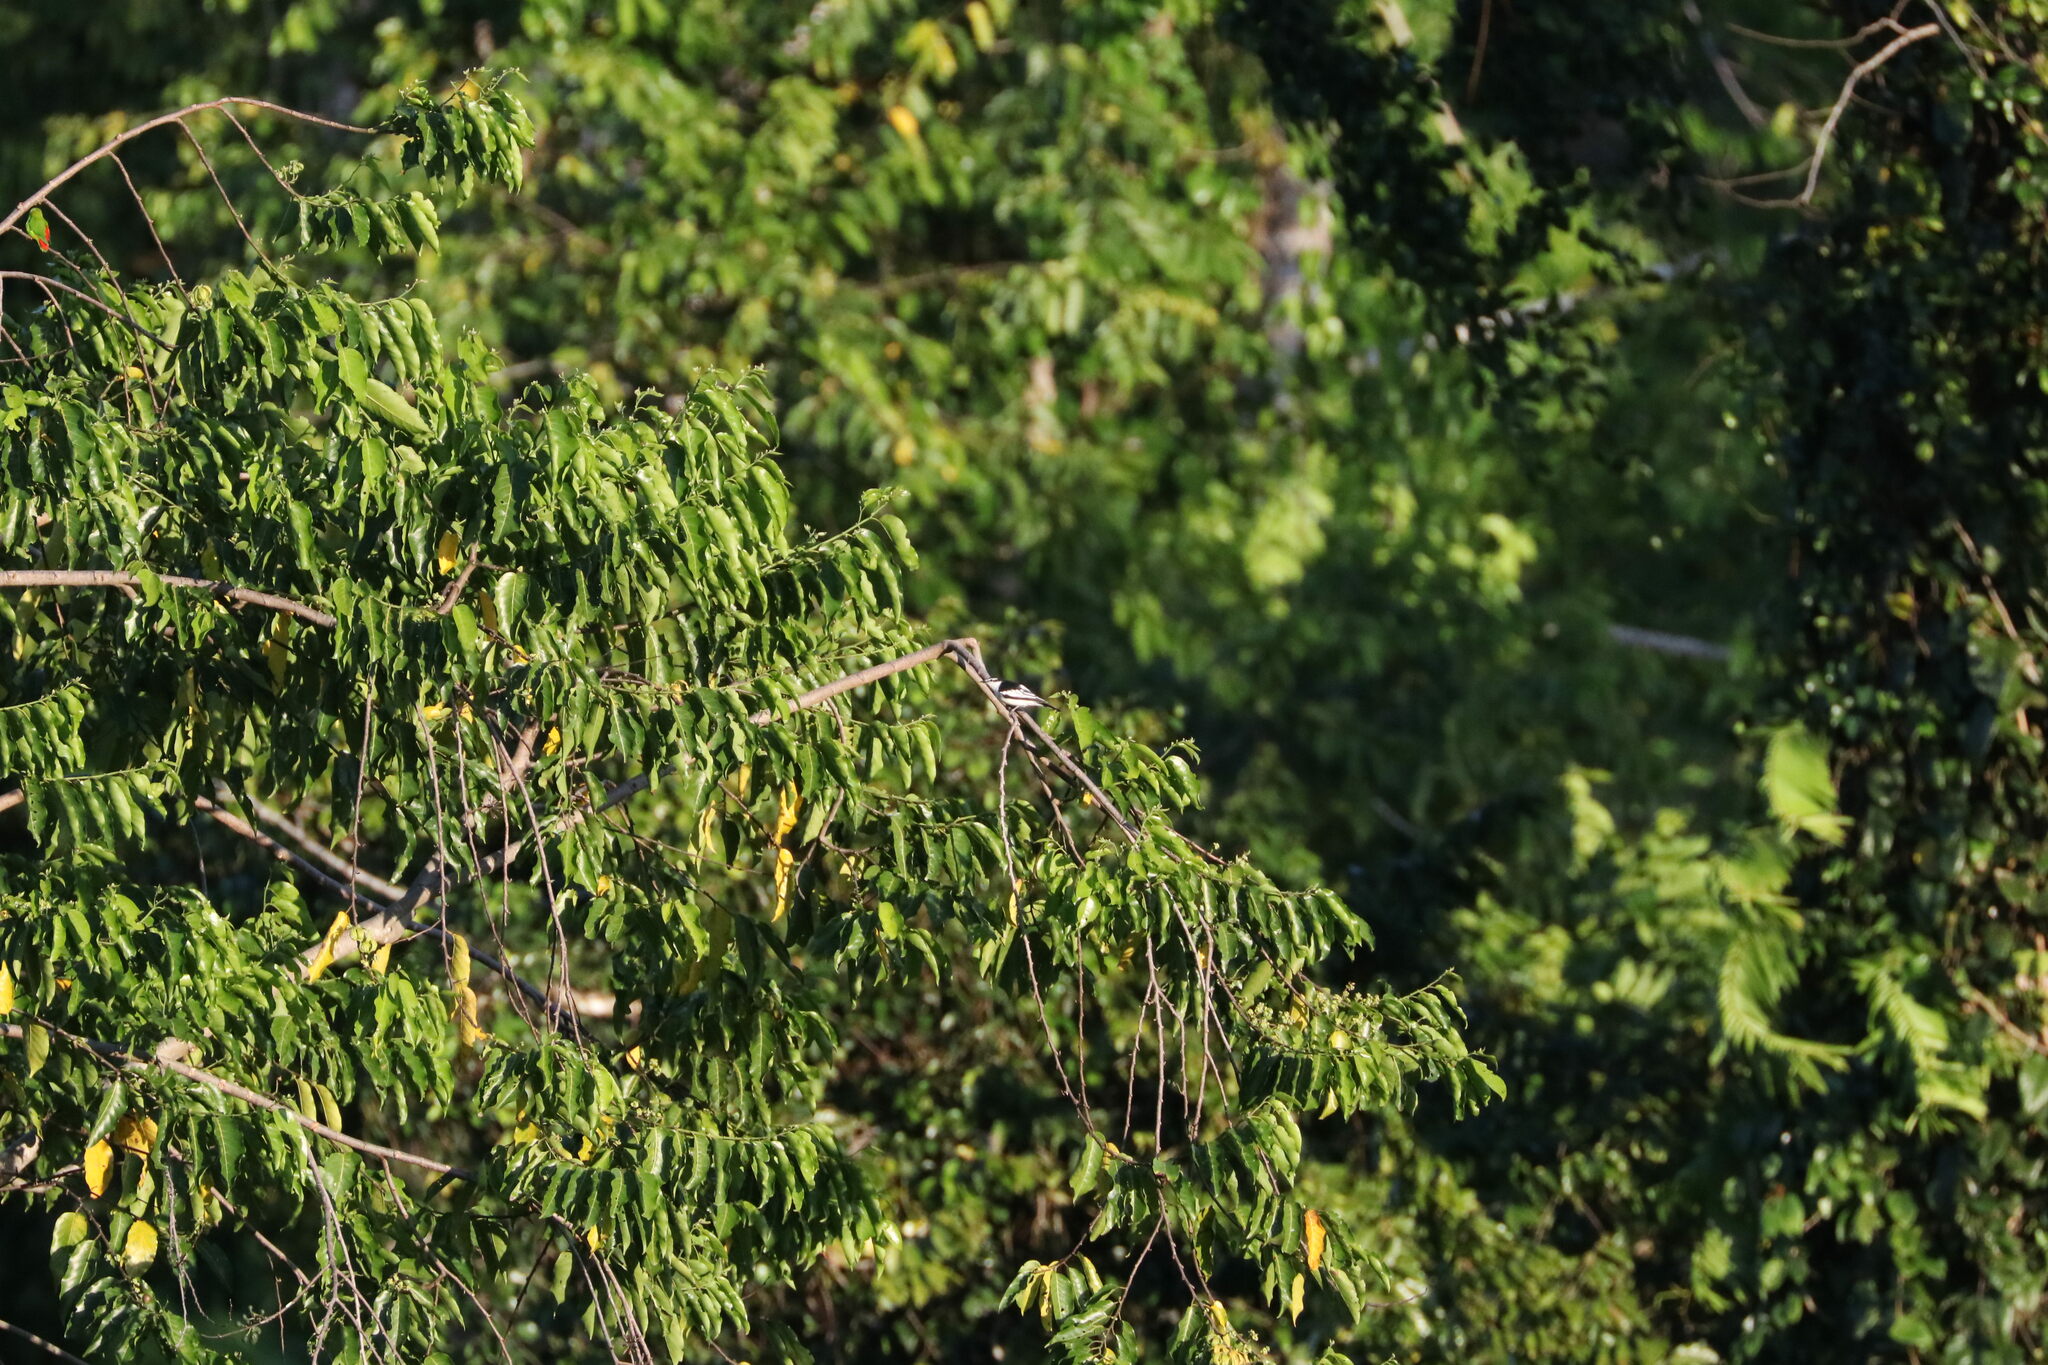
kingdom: Animalia
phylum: Chordata
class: Aves
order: Passeriformes
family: Campephagidae
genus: Lalage
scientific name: Lalage leucopygialis
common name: White-rumped triller
